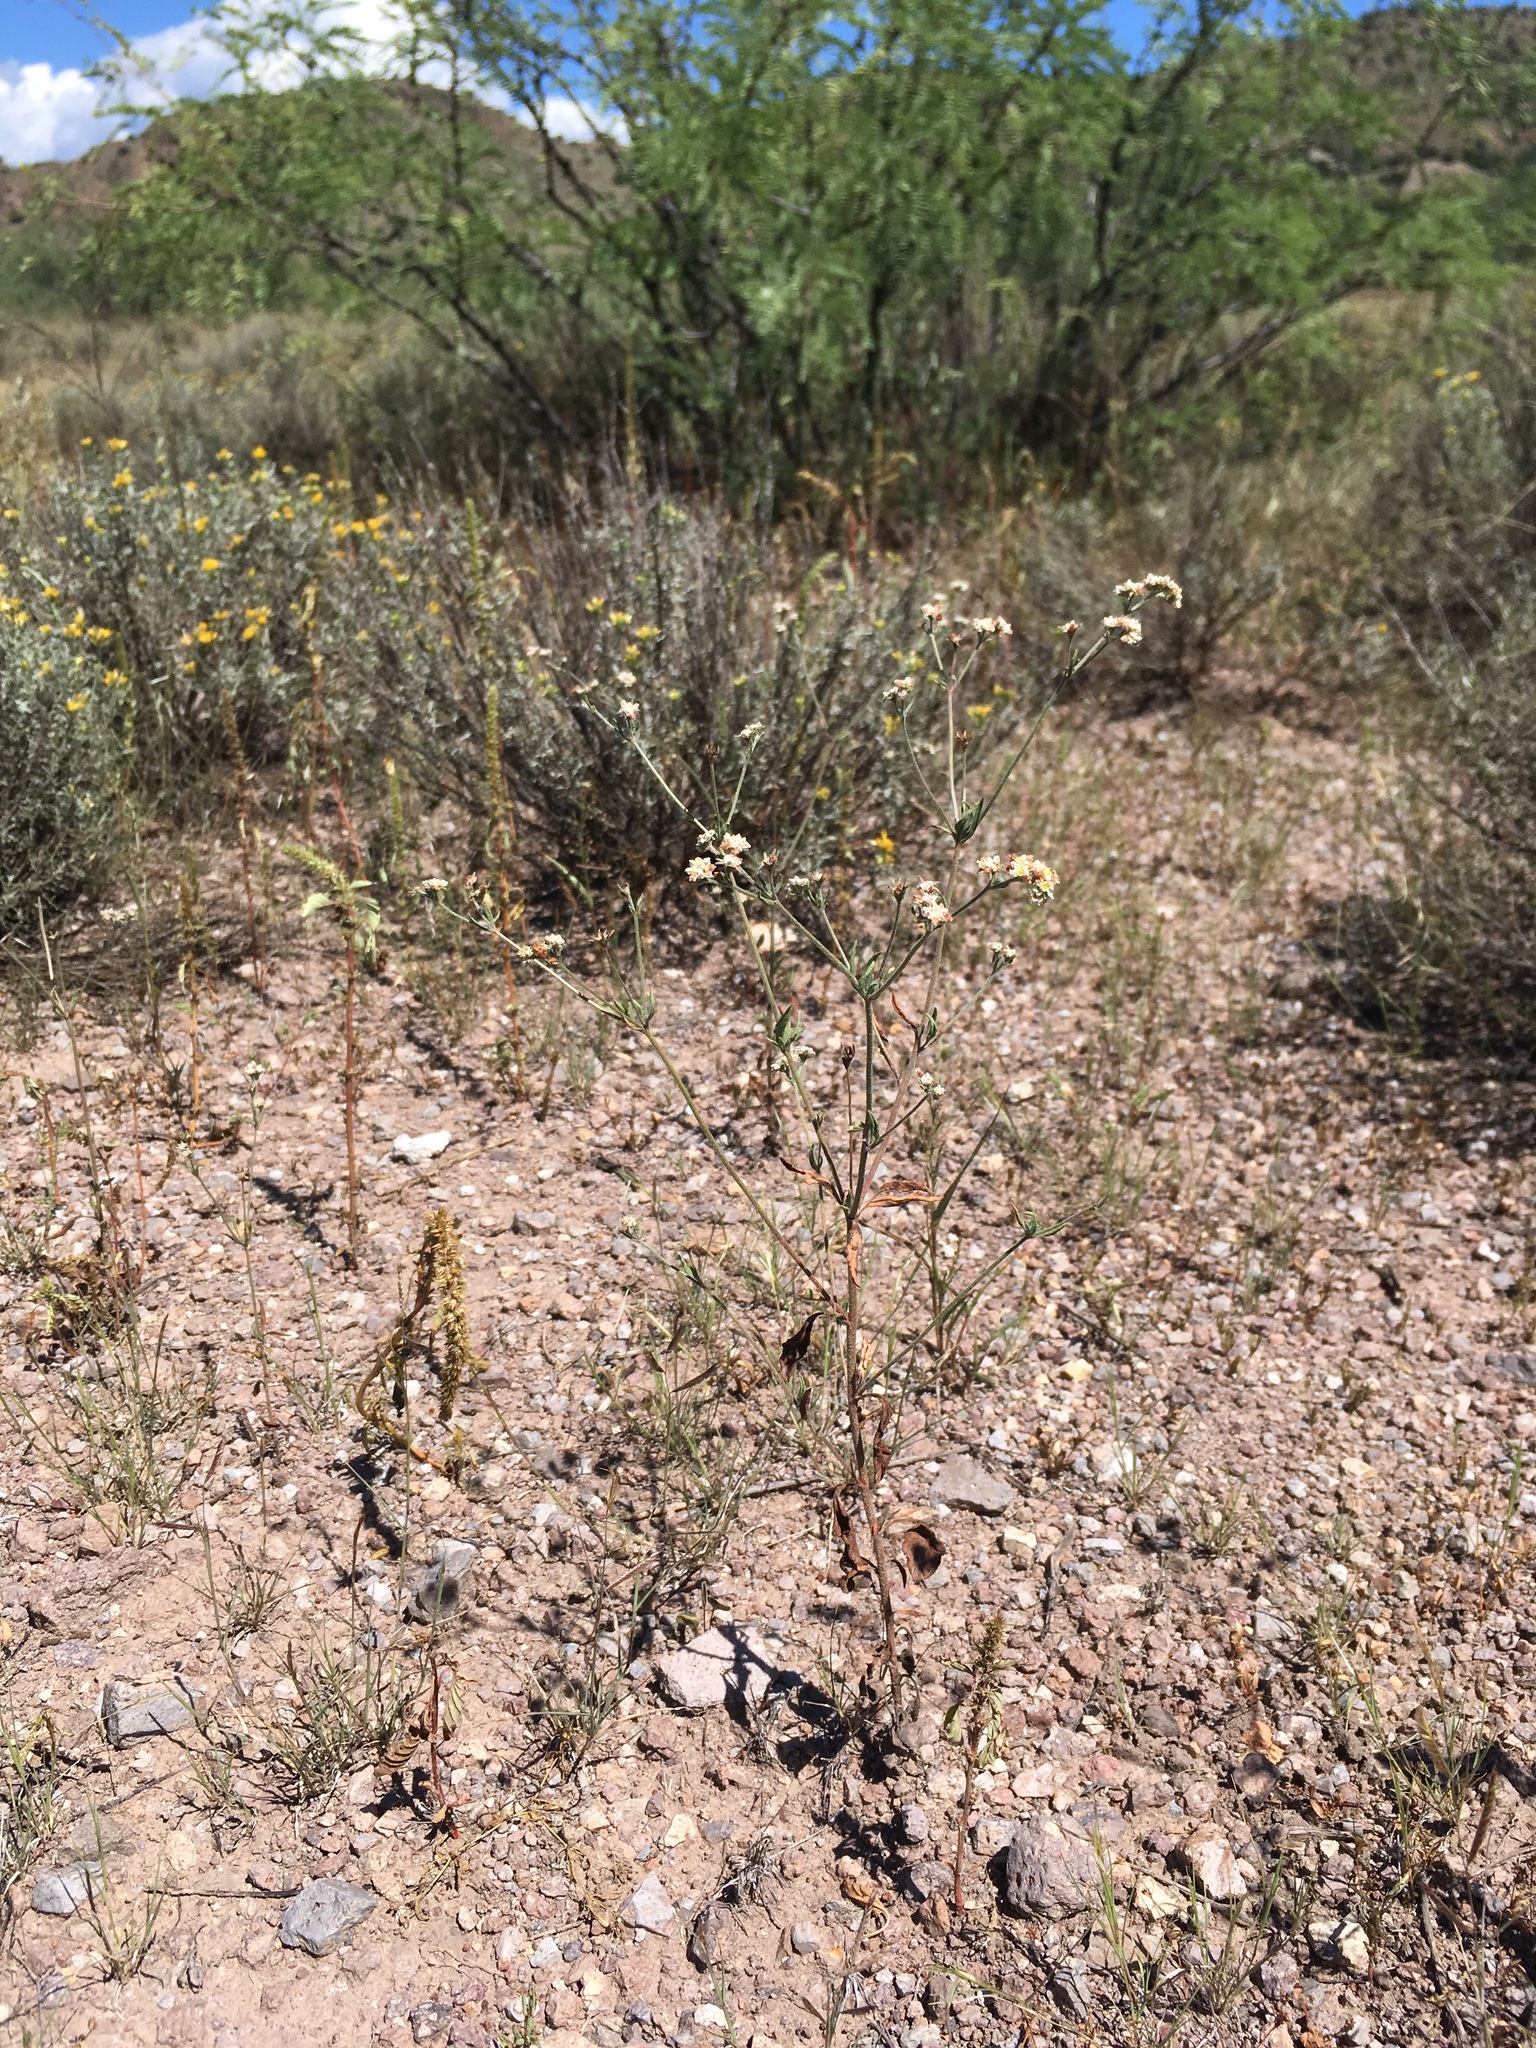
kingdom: Plantae
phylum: Tracheophyta
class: Magnoliopsida
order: Caryophyllales
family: Polygonaceae
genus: Eriogonum
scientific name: Eriogonum abertianum
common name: Abert's wild buckwheat
